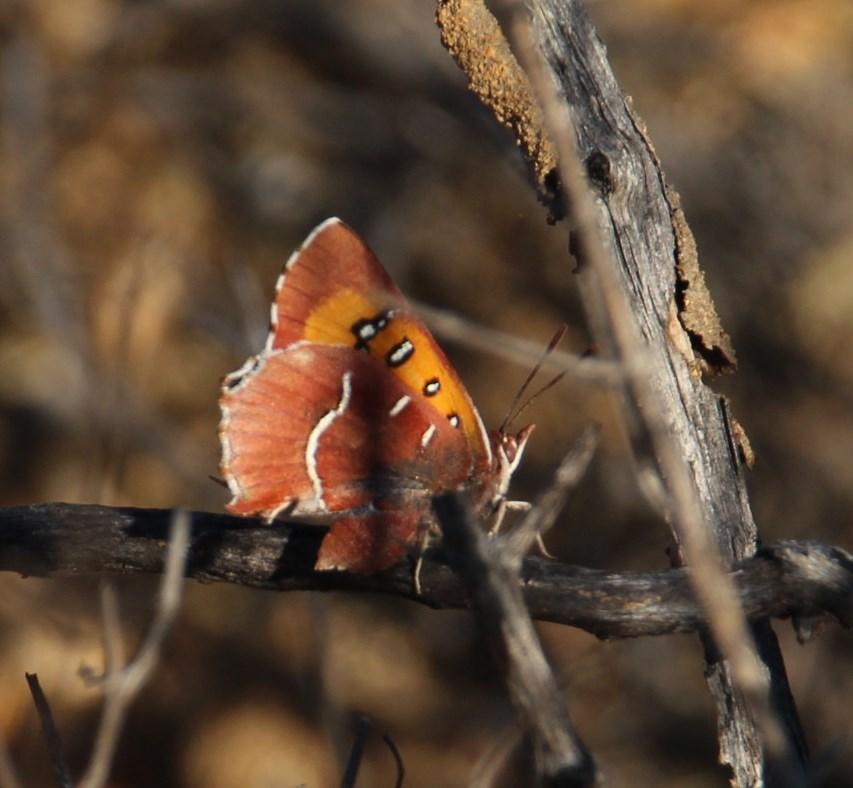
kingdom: Animalia
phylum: Arthropoda
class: Insecta
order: Lepidoptera
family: Lycaenidae
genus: Tylopaedia
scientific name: Tylopaedia sardonyx
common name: King copper
